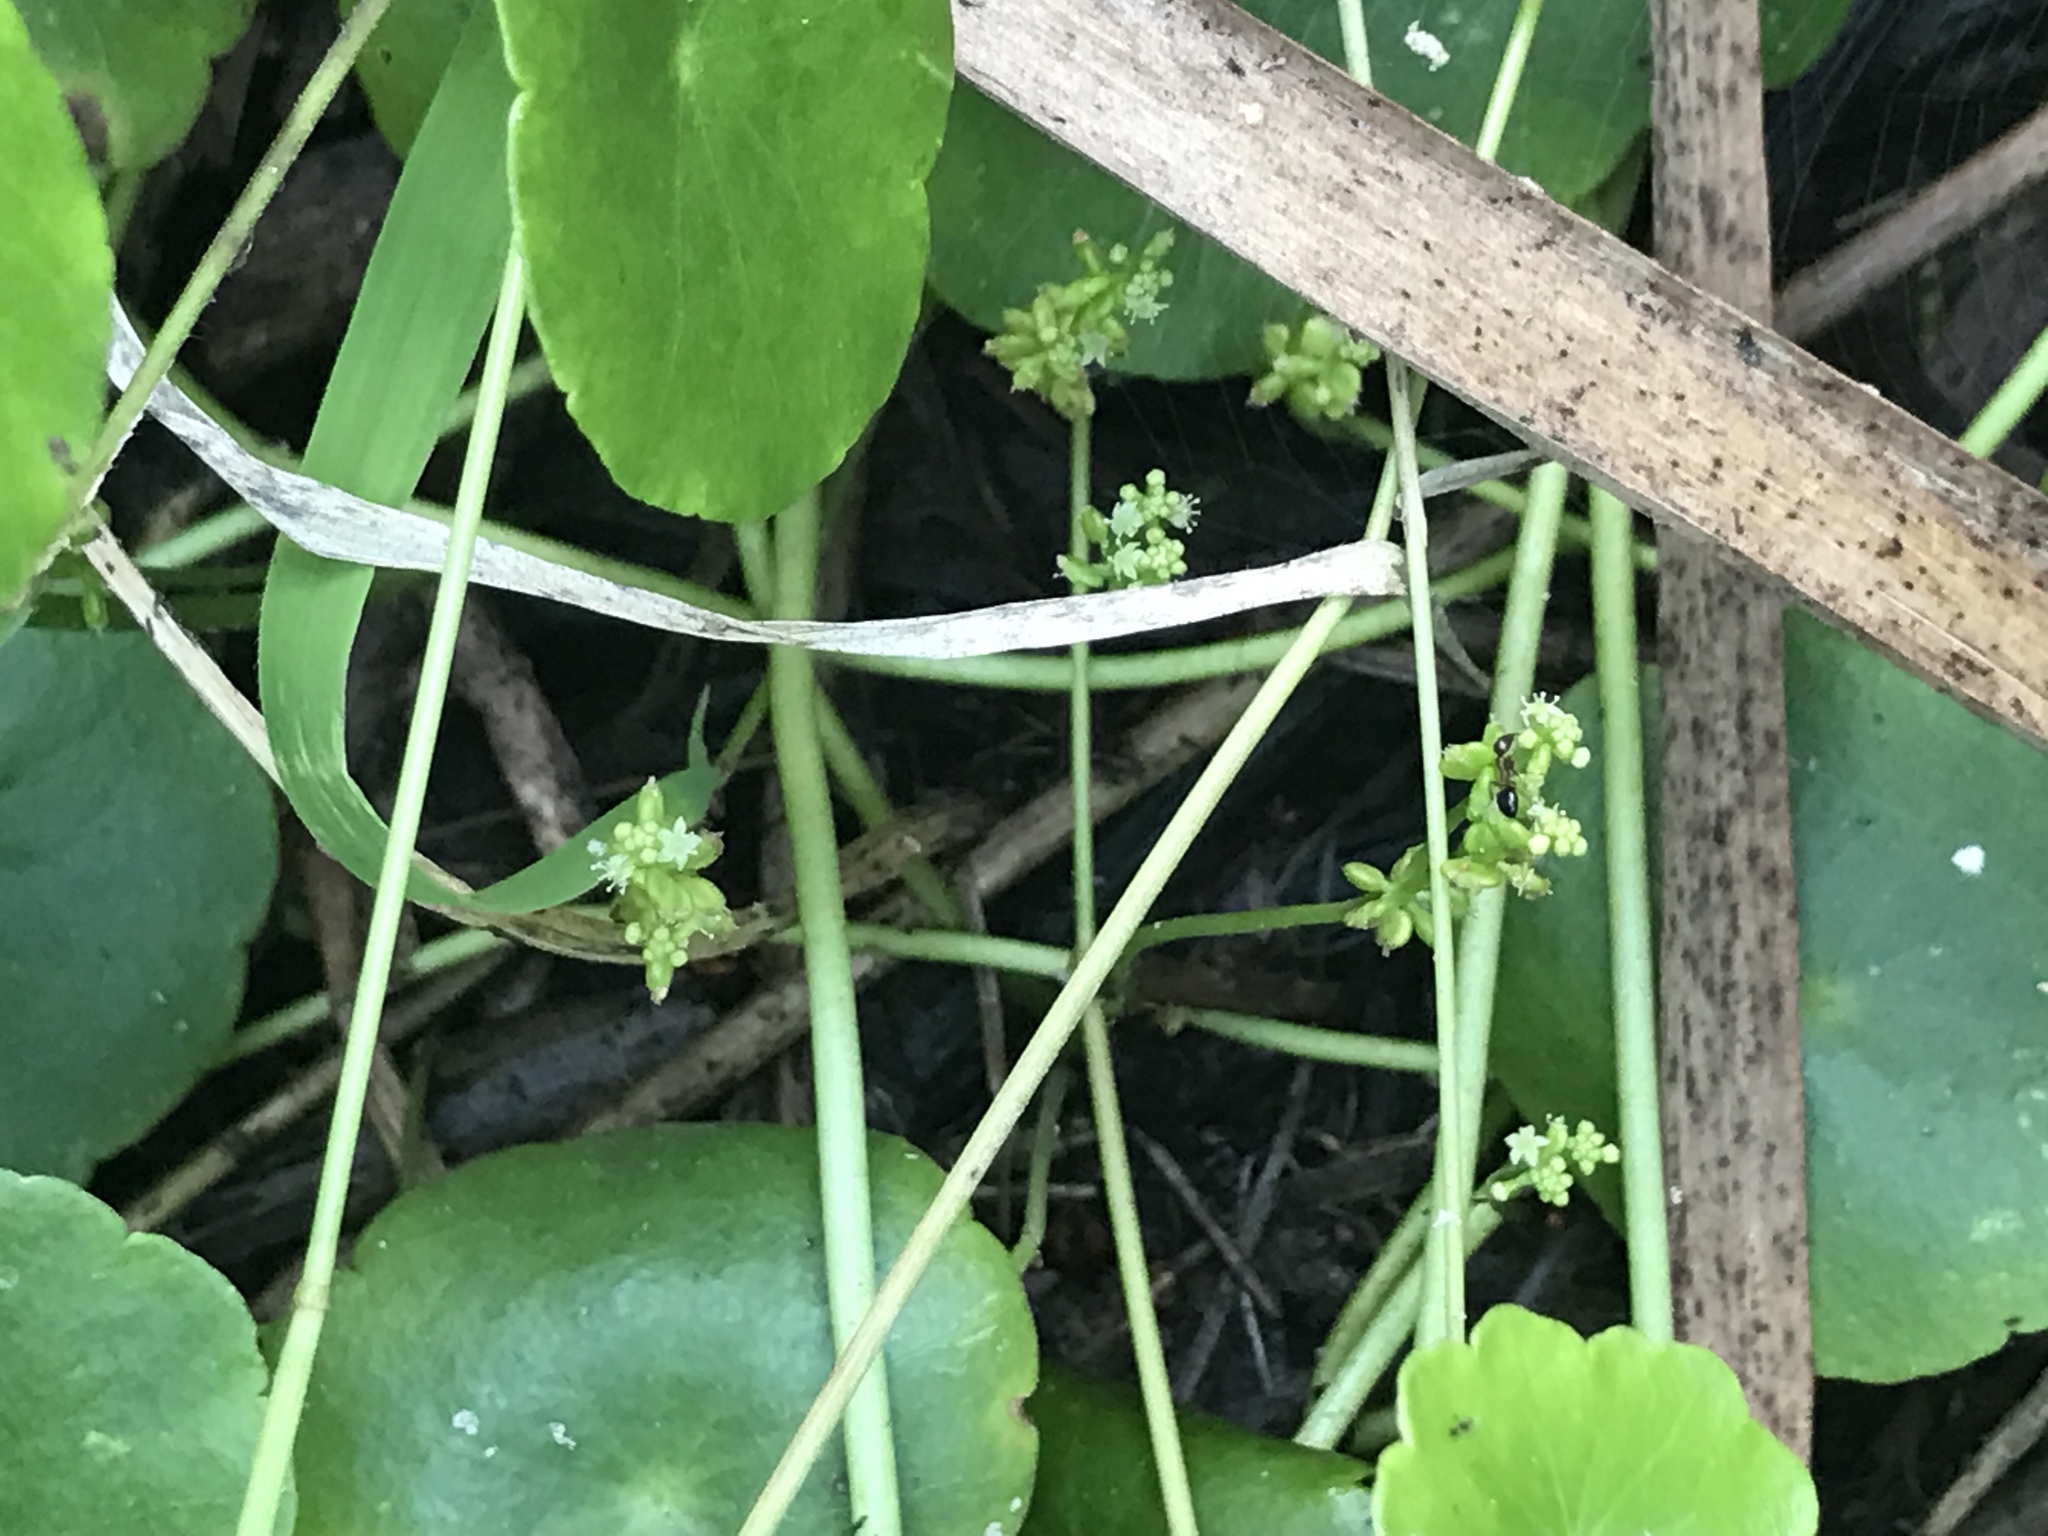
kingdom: Plantae
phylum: Tracheophyta
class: Magnoliopsida
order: Apiales
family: Araliaceae
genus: Hydrocotyle
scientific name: Hydrocotyle verticillata
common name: Whorled marshpennywort
